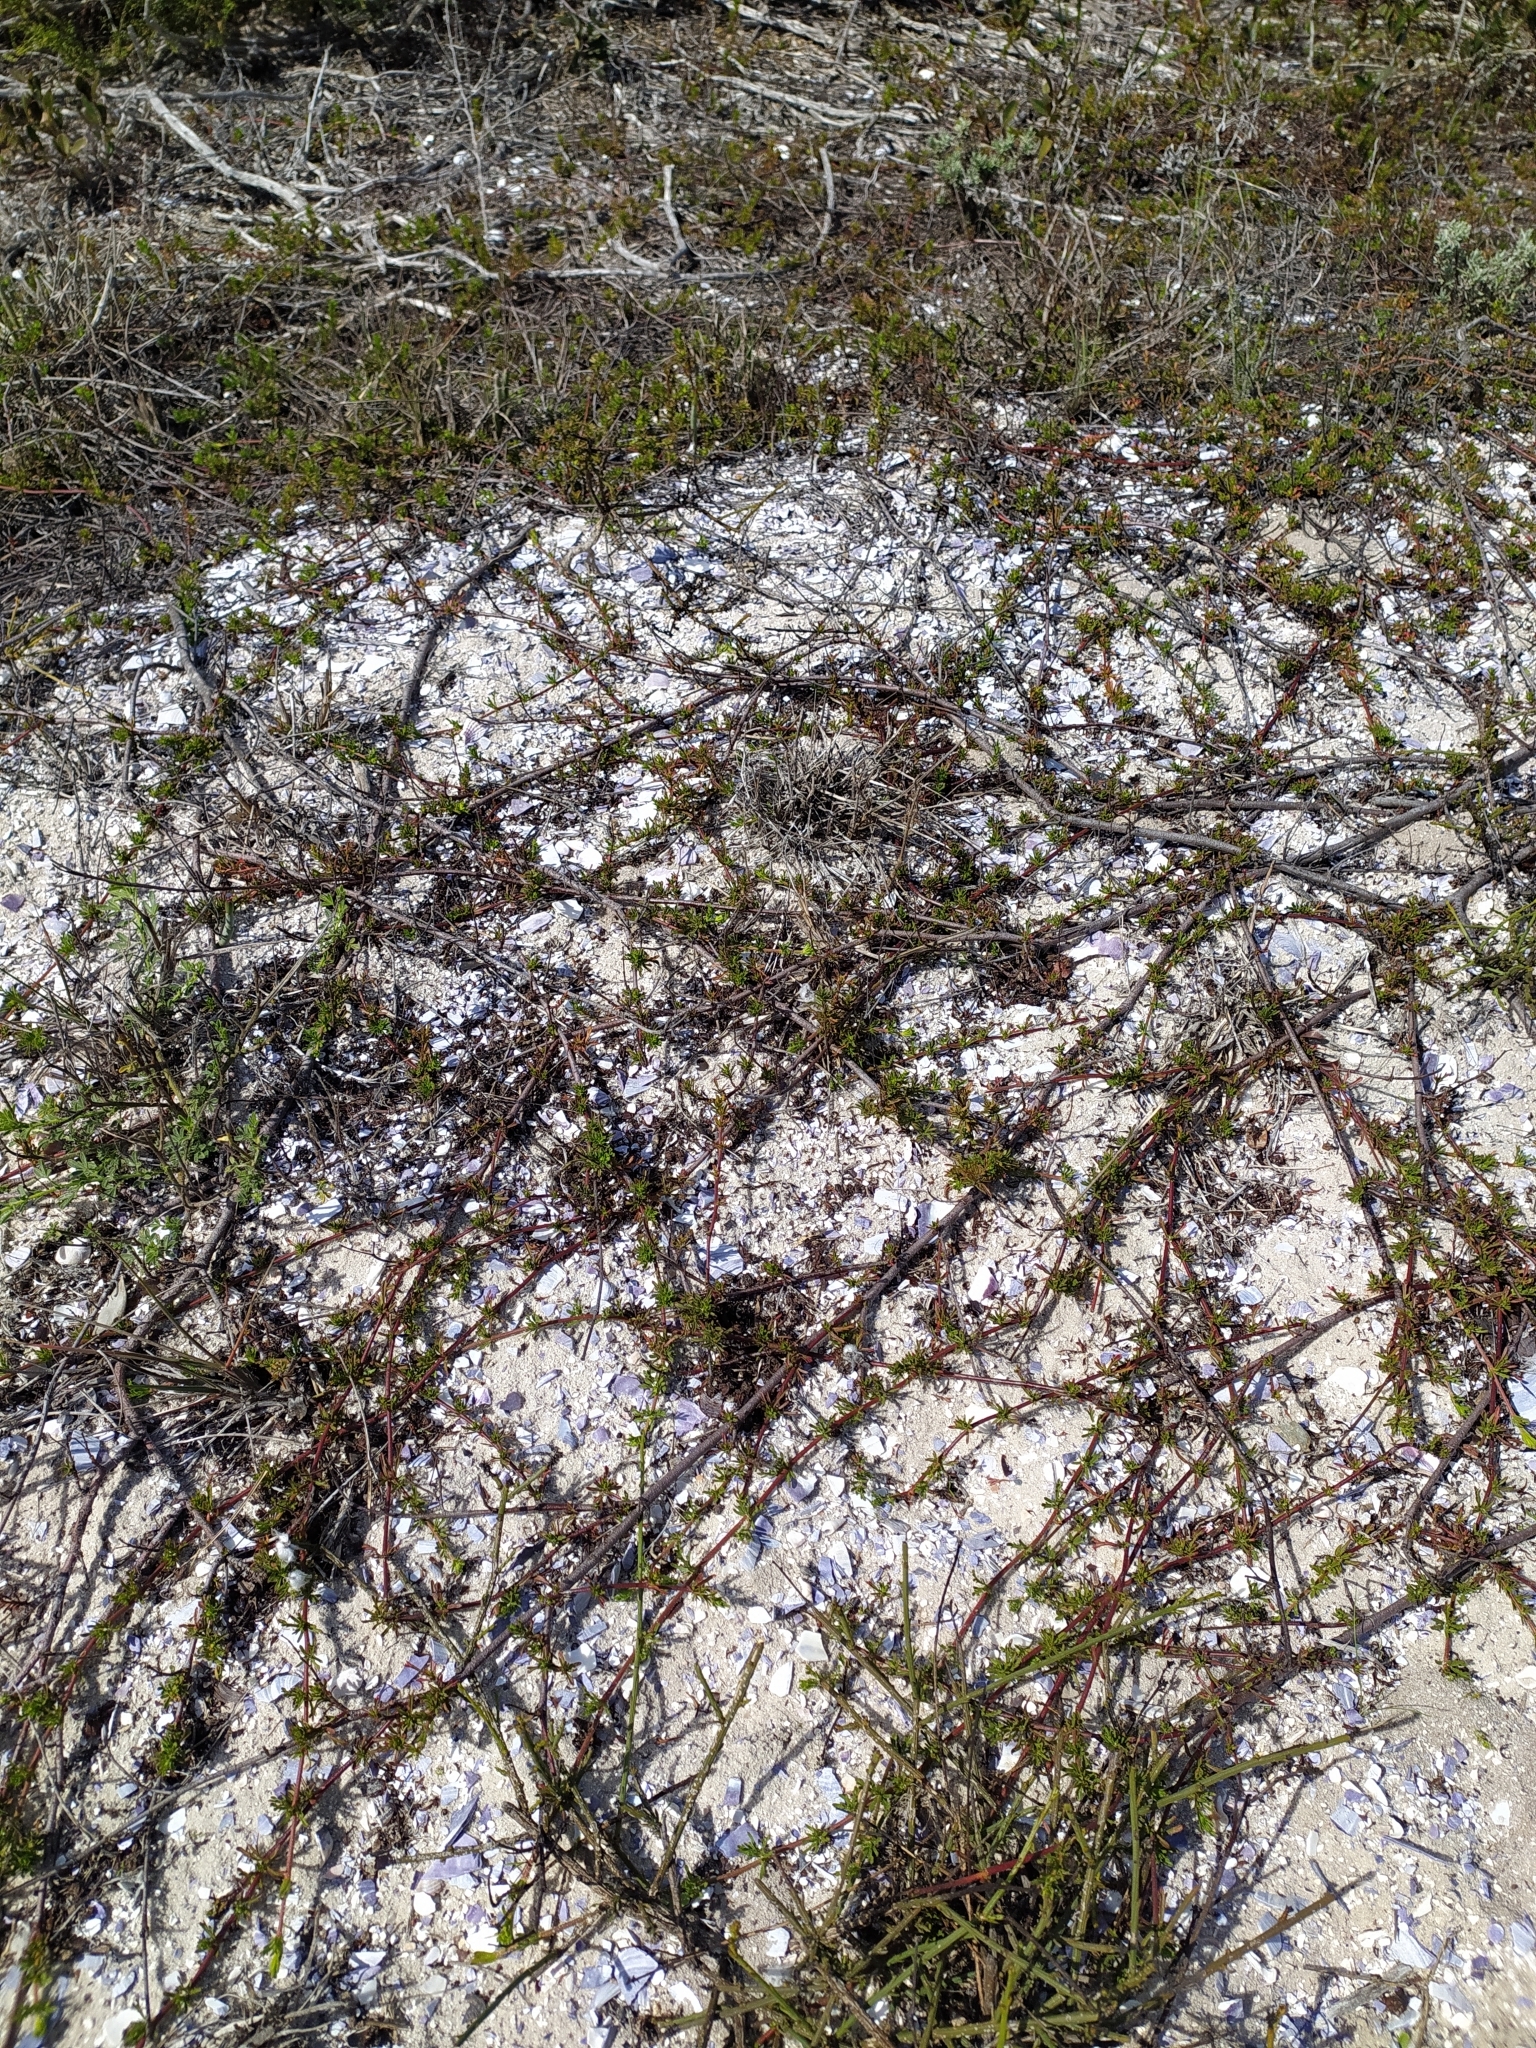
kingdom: Plantae
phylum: Tracheophyta
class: Magnoliopsida
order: Malvales
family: Malvaceae
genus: Hermannia
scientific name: Hermannia pinnata
